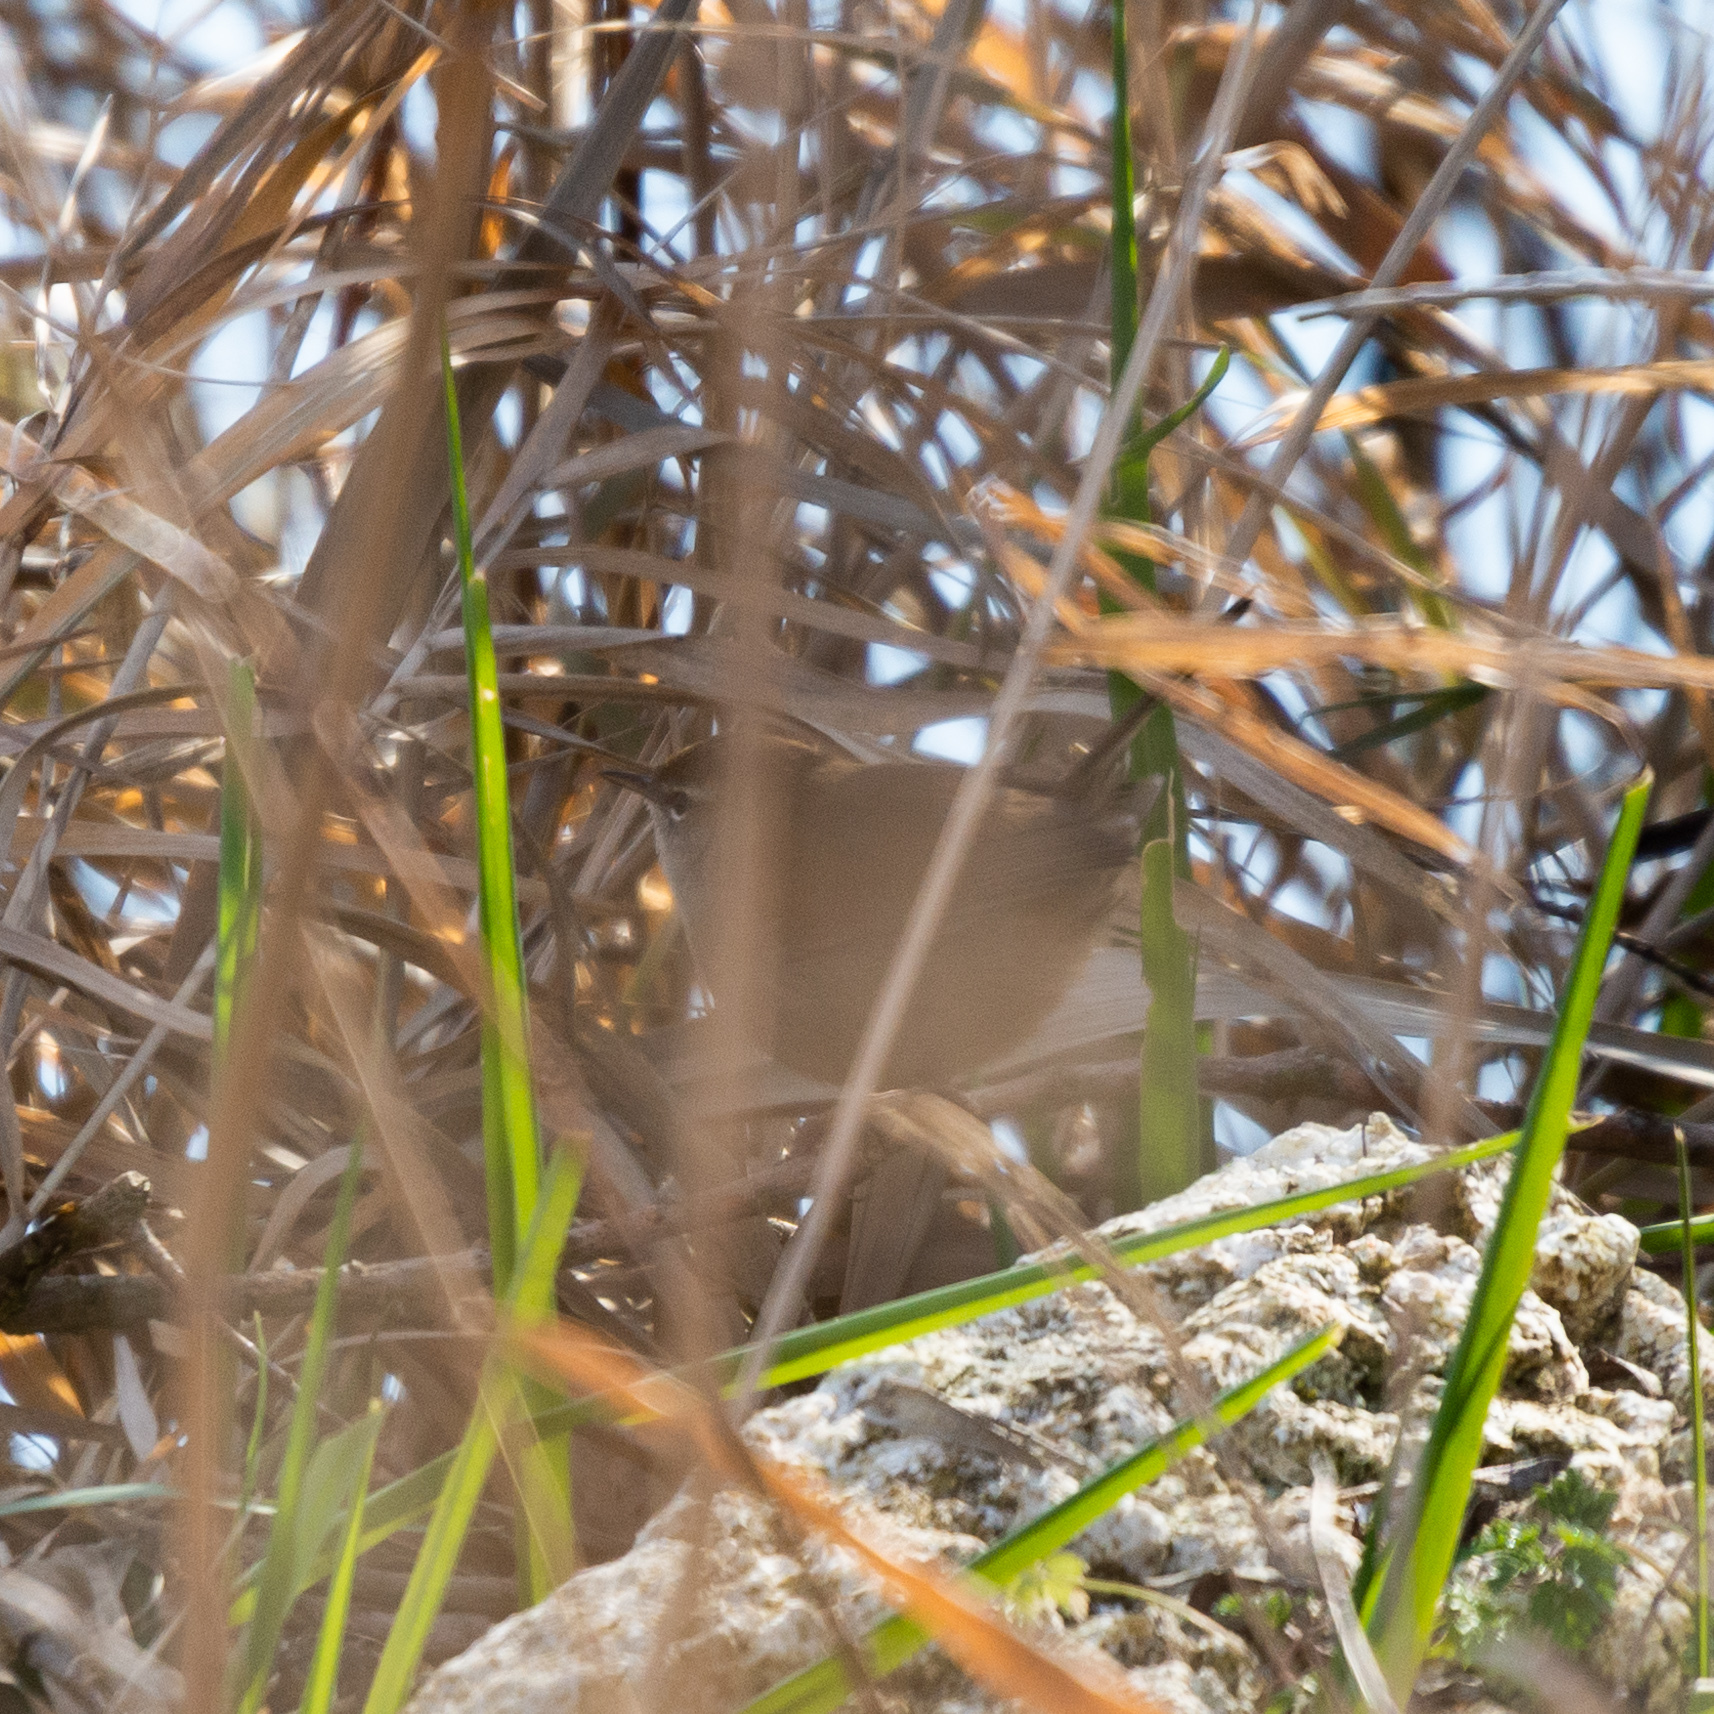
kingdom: Animalia
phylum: Chordata
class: Aves
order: Passeriformes
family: Cettiidae
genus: Cettia
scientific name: Cettia cetti
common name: Cetti's warbler
